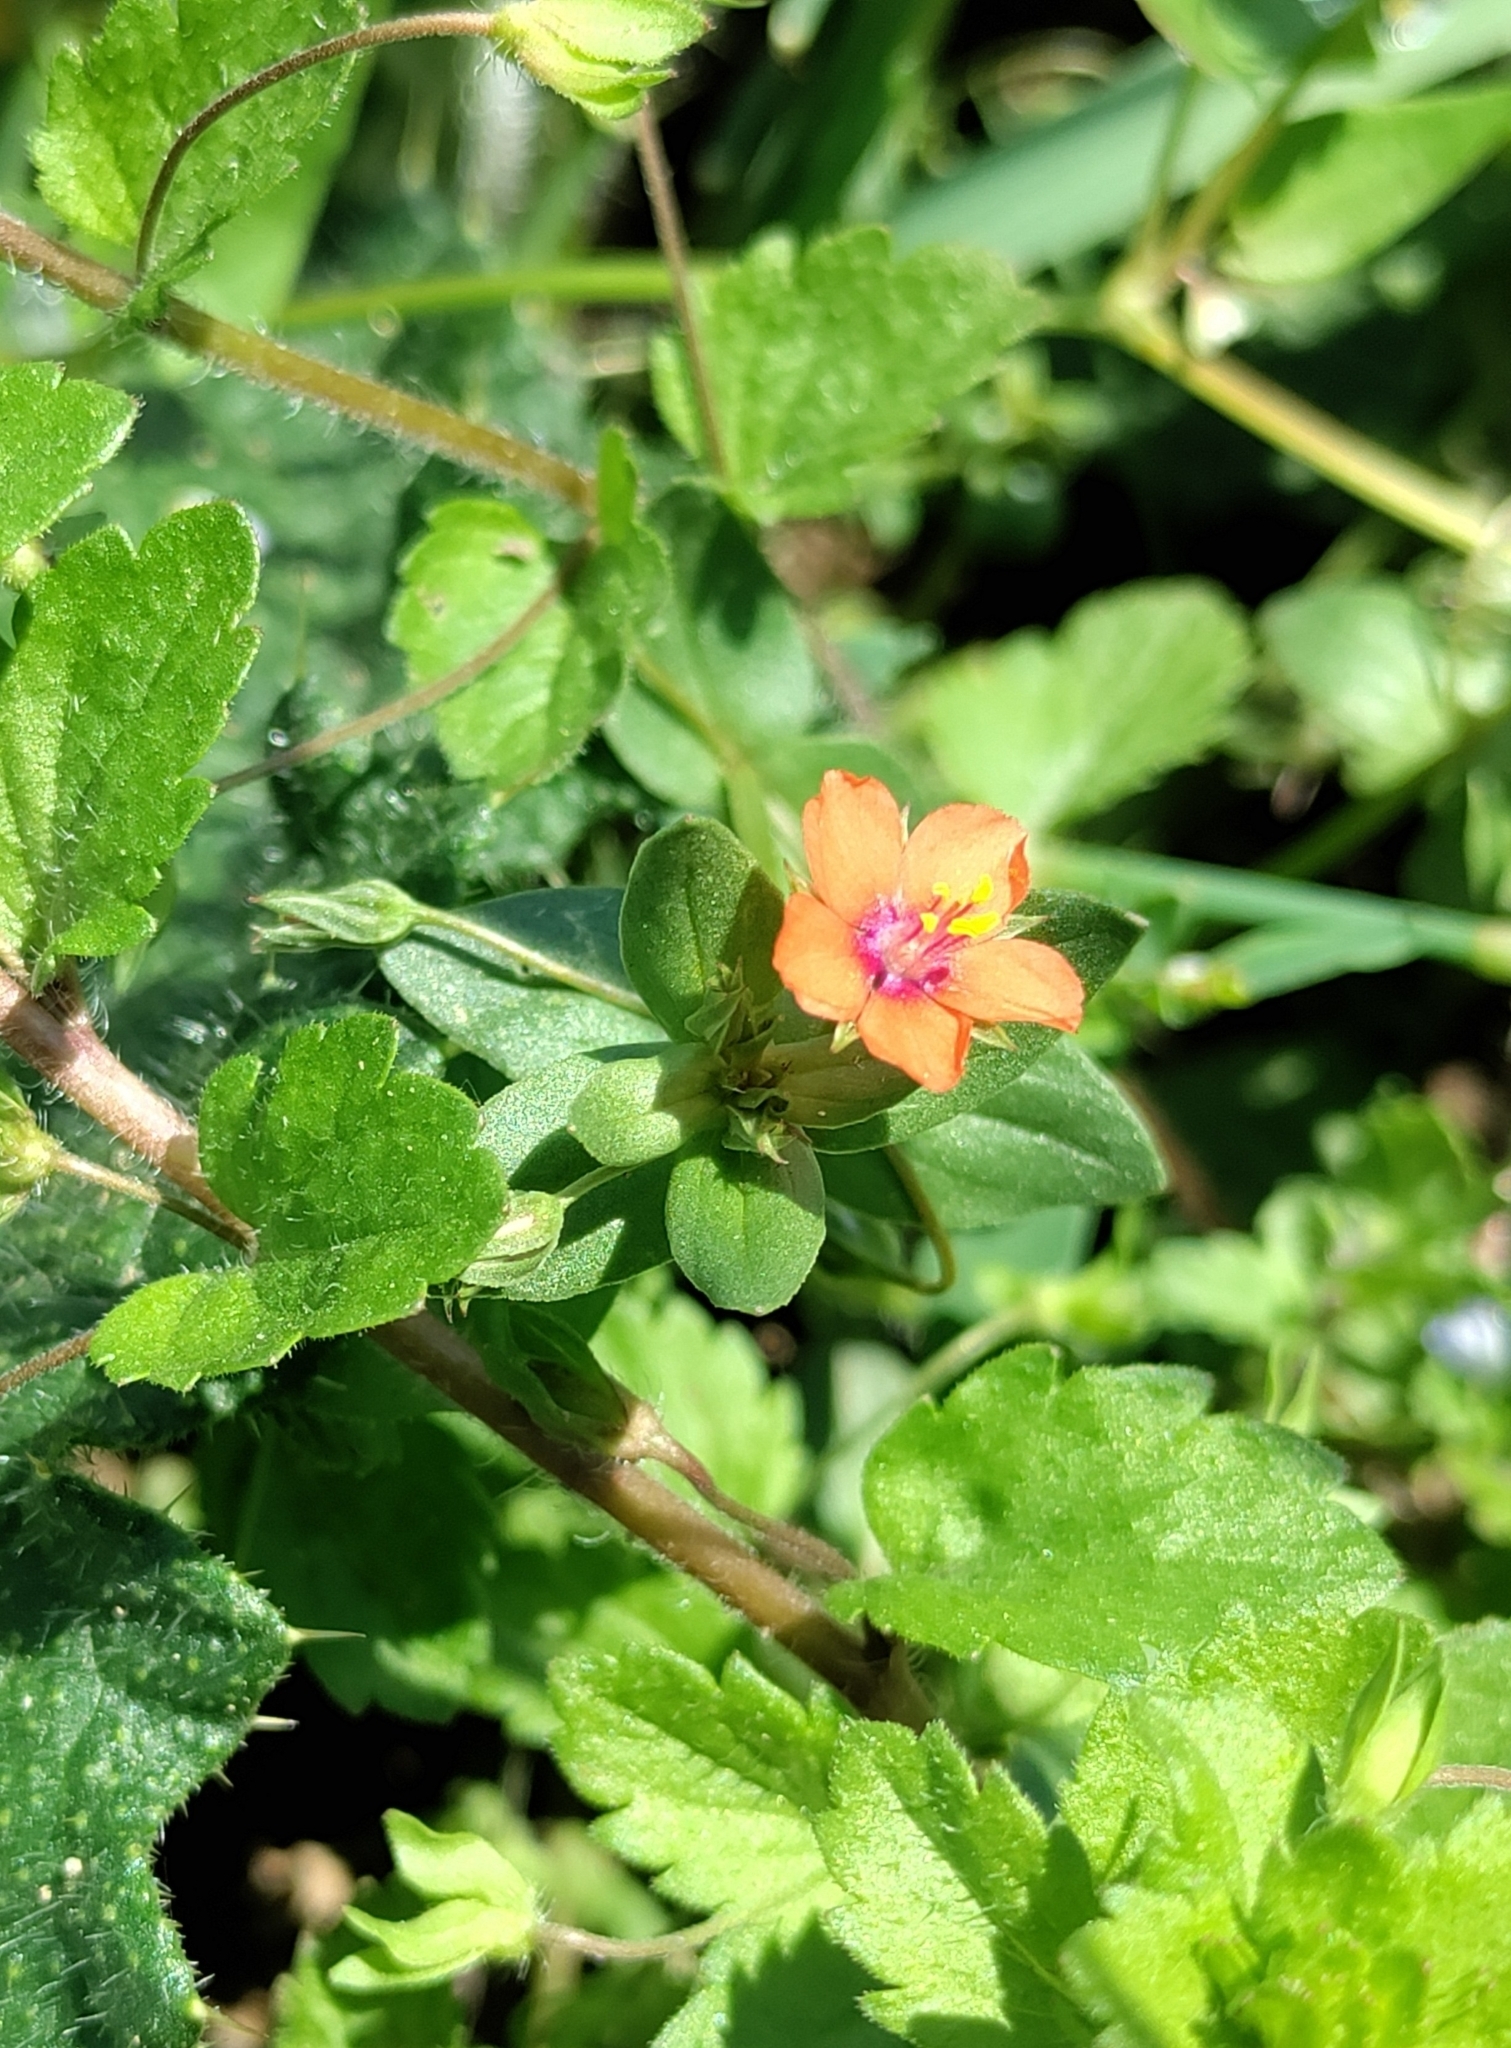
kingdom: Plantae
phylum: Tracheophyta
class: Magnoliopsida
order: Ericales
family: Primulaceae
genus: Lysimachia
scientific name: Lysimachia arvensis
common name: Scarlet pimpernel
